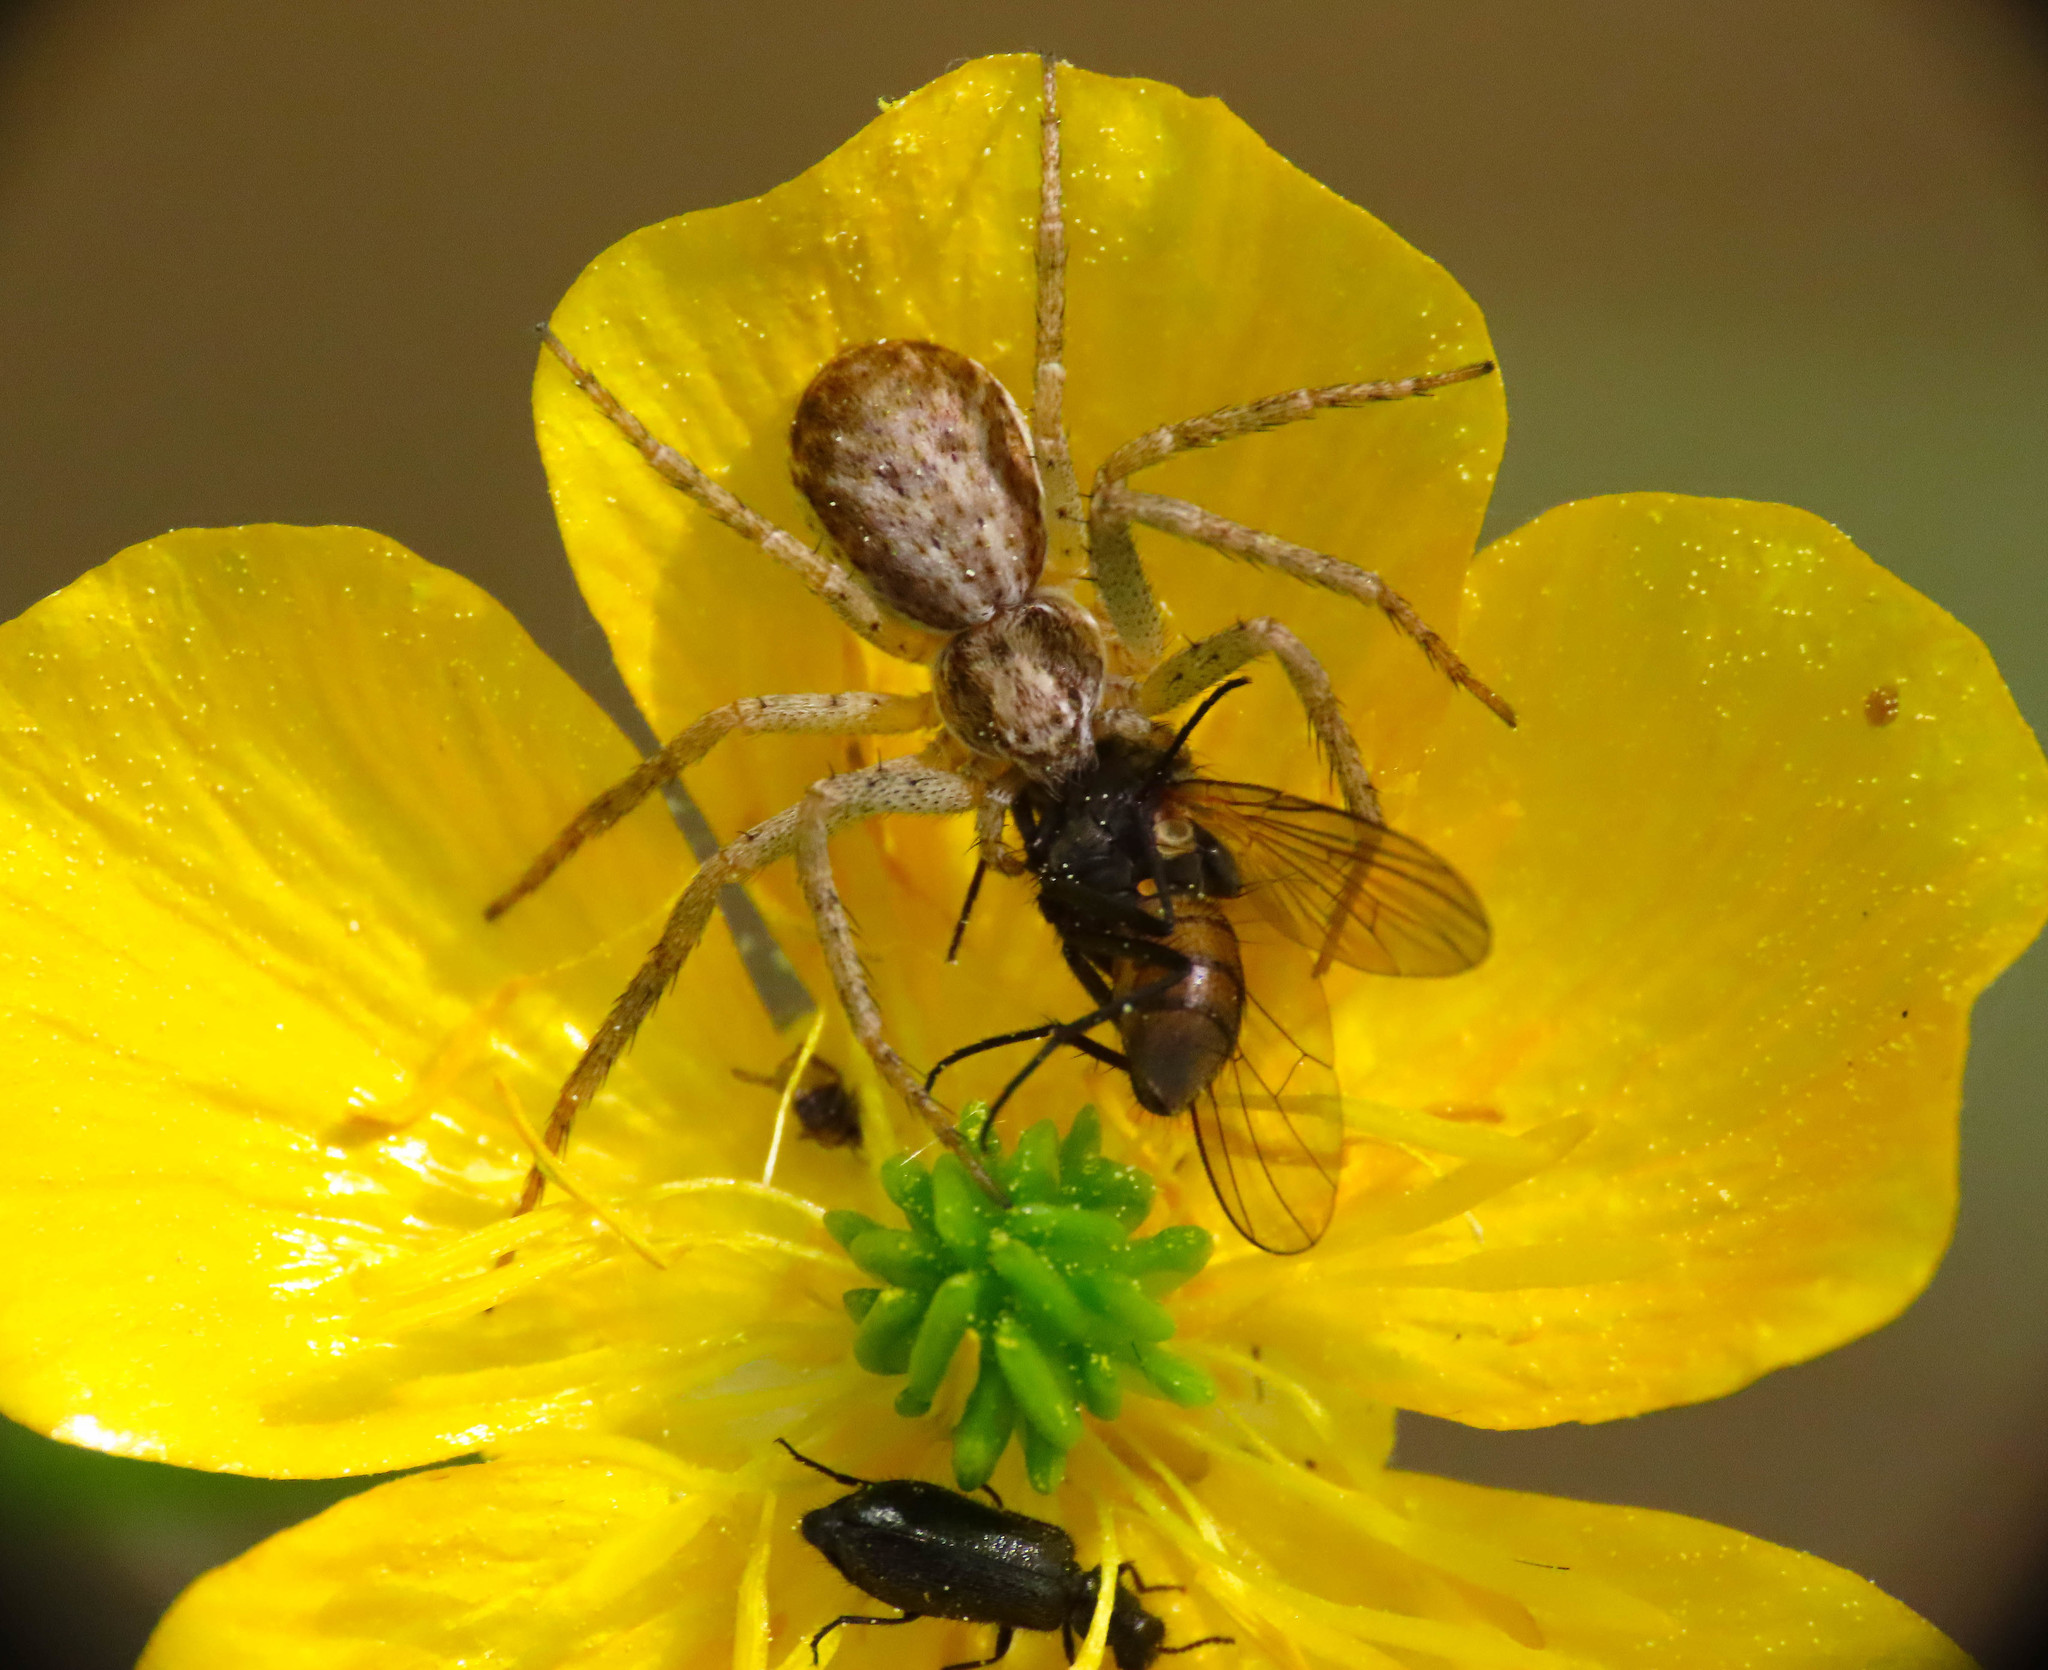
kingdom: Animalia
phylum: Arthropoda
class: Arachnida
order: Araneae
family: Philodromidae
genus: Philodromus
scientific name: Philodromus dispar
